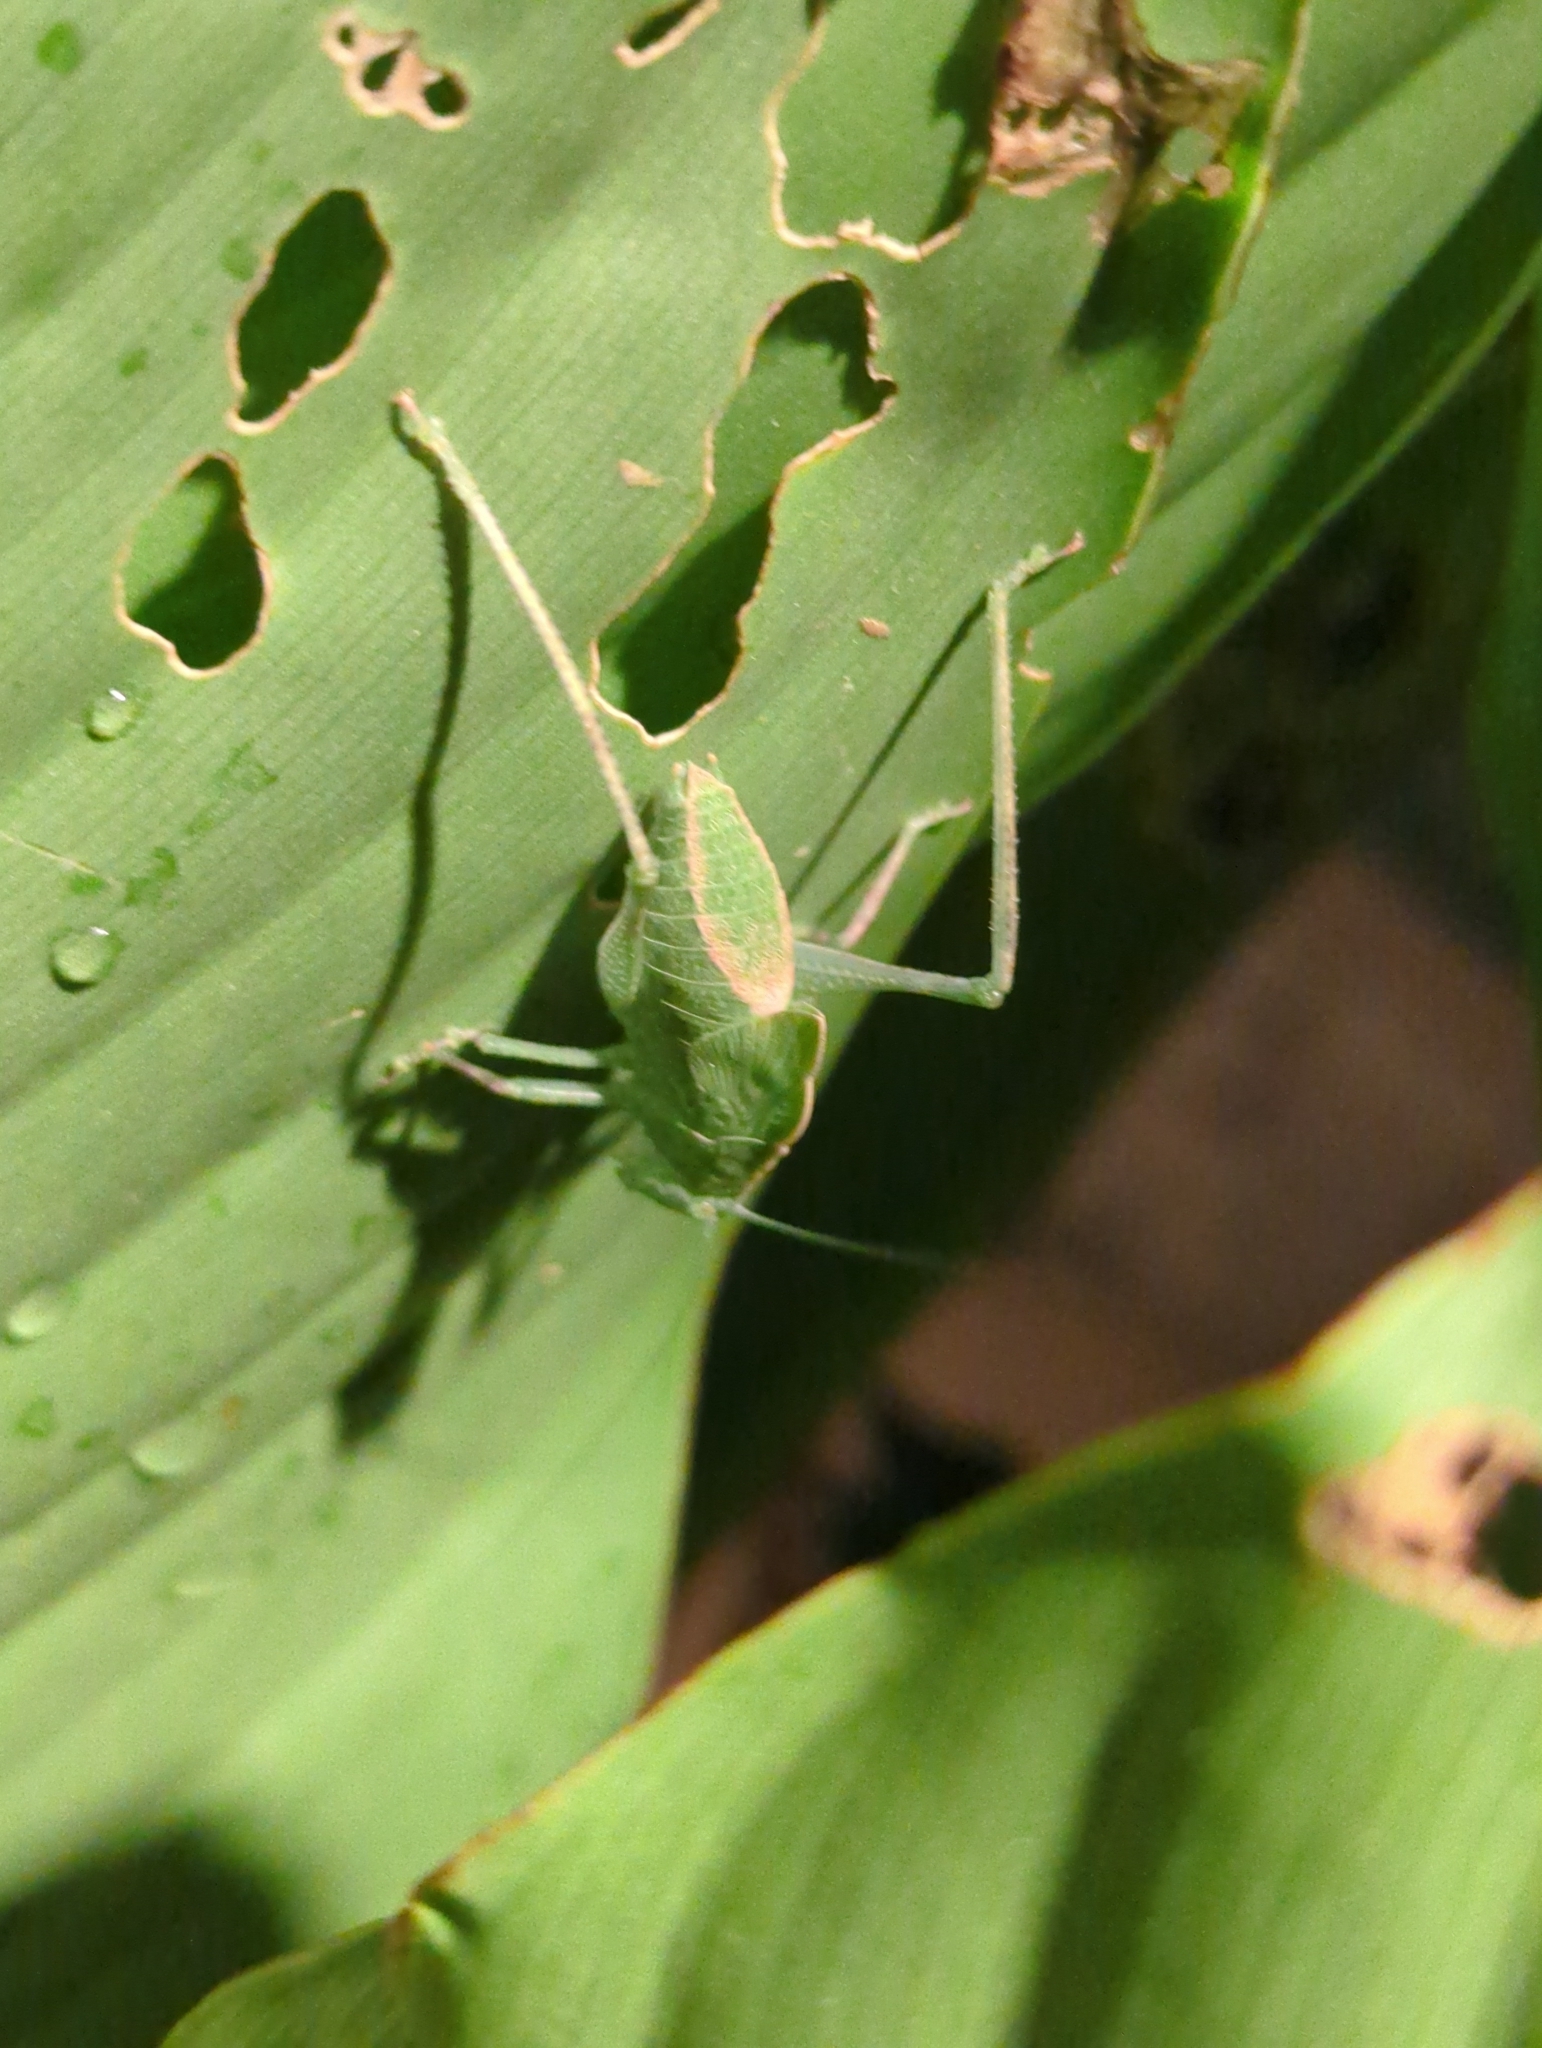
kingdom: Animalia
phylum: Arthropoda
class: Insecta
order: Orthoptera
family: Tettigoniidae
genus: Microcentrum
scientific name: Microcentrum rhombifolium
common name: Broad-winged katydid
